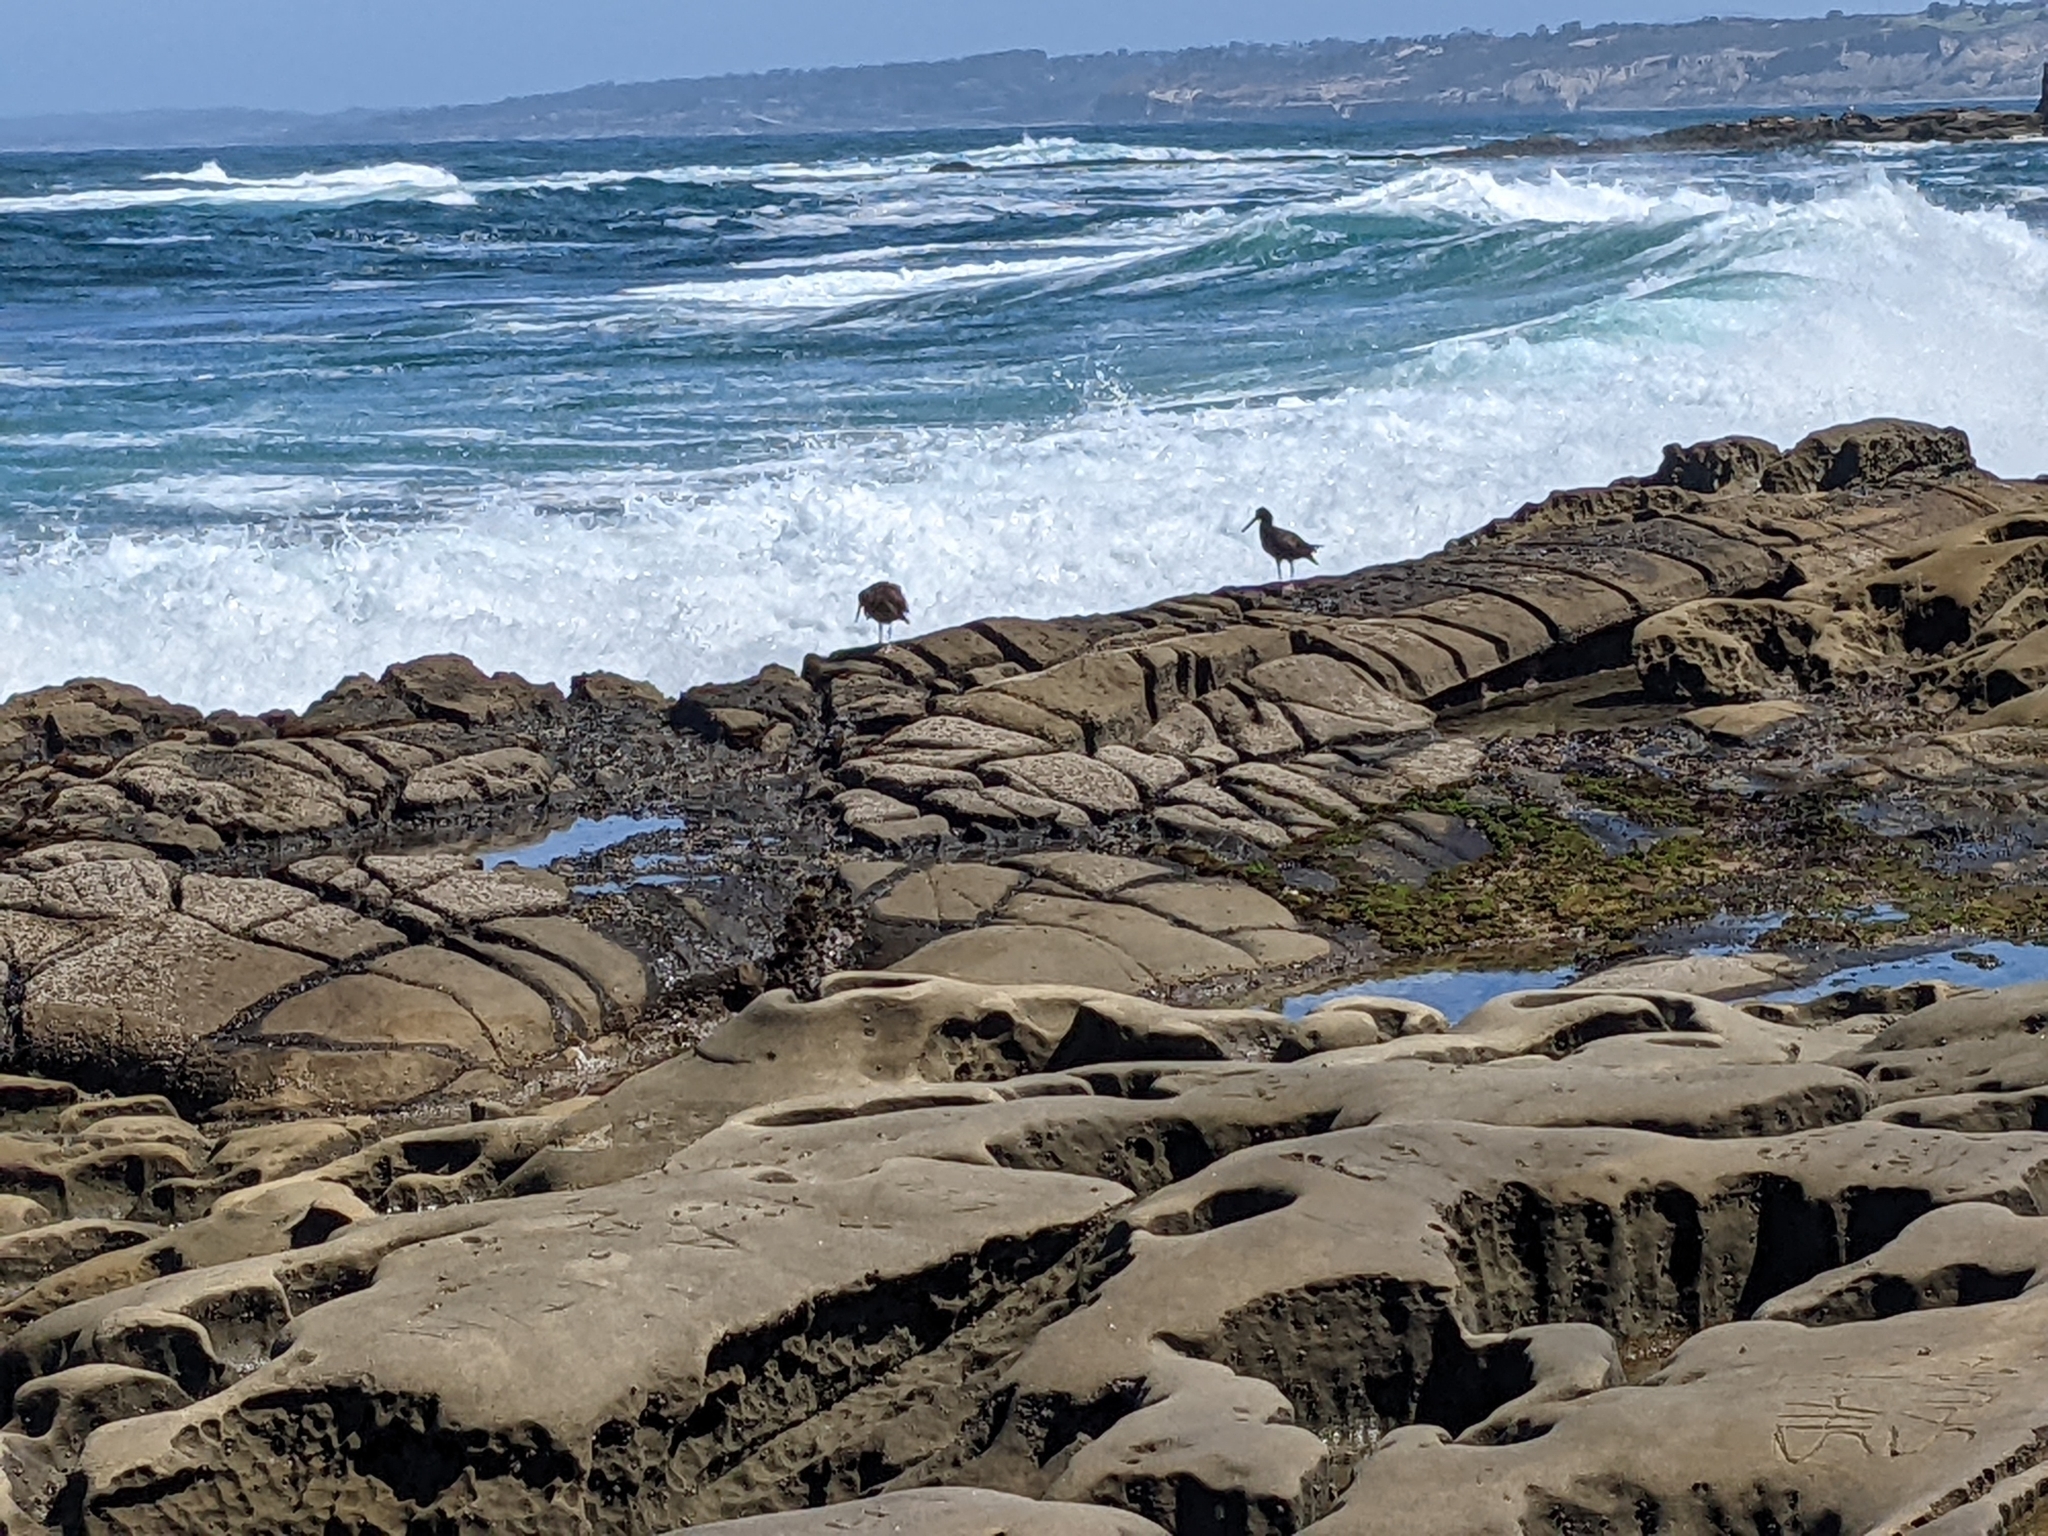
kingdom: Animalia
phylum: Chordata
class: Aves
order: Charadriiformes
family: Haematopodidae
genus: Haematopus
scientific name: Haematopus bachmani
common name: Black oystercatcher
